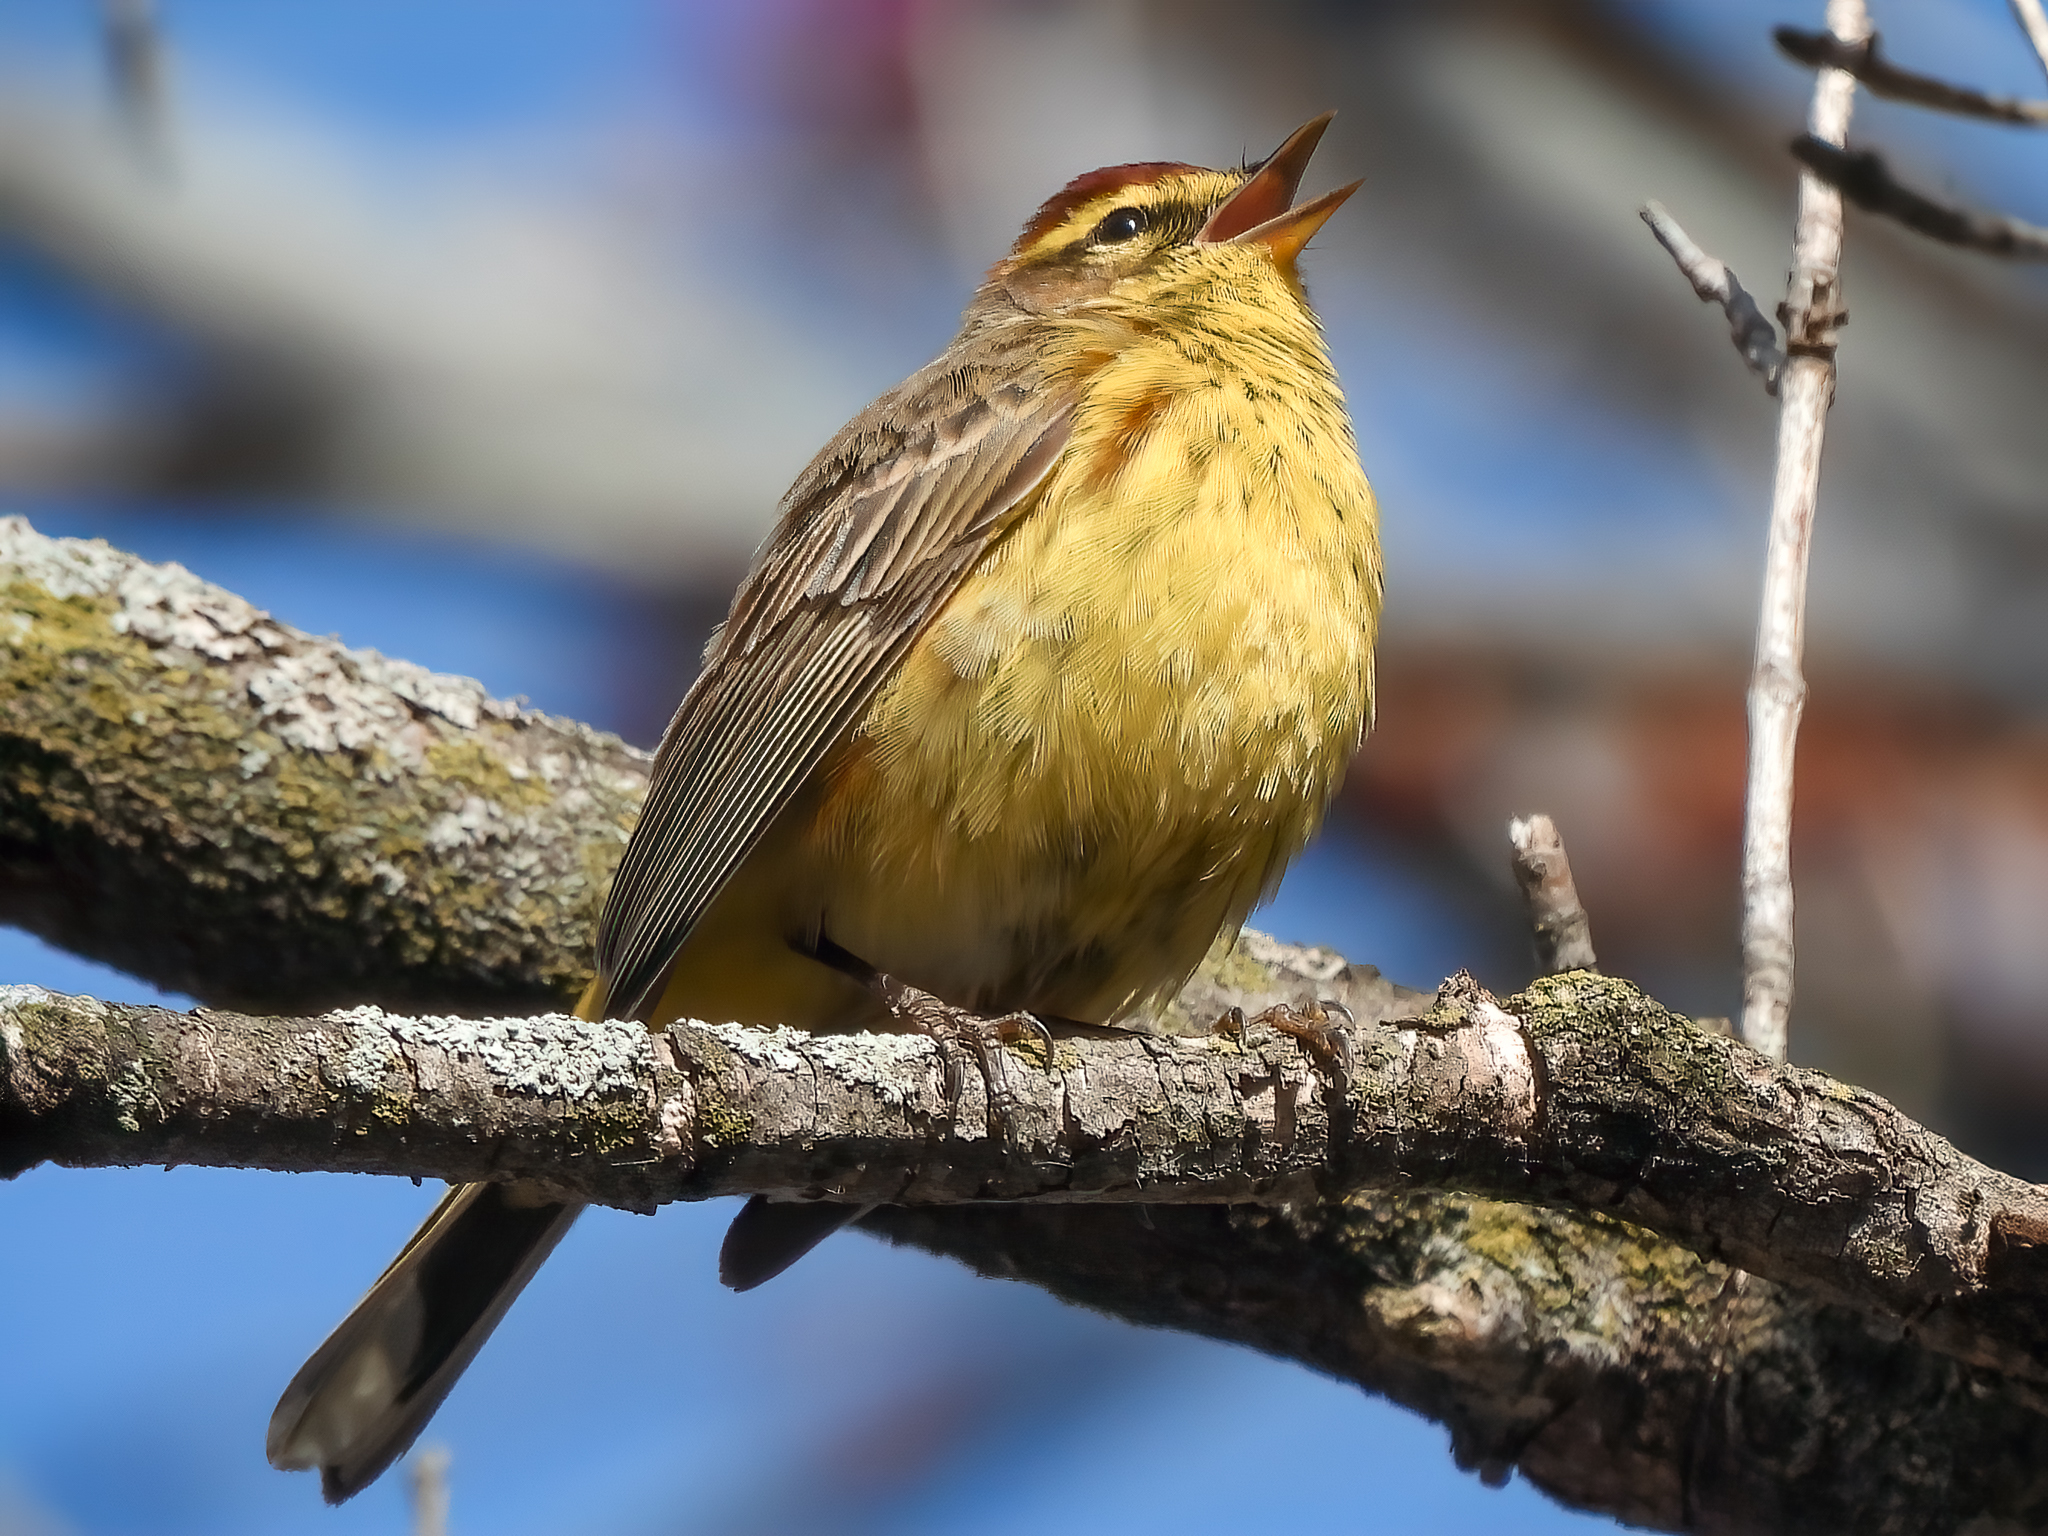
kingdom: Animalia
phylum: Chordata
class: Aves
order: Passeriformes
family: Parulidae
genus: Setophaga
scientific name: Setophaga palmarum
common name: Palm warbler
